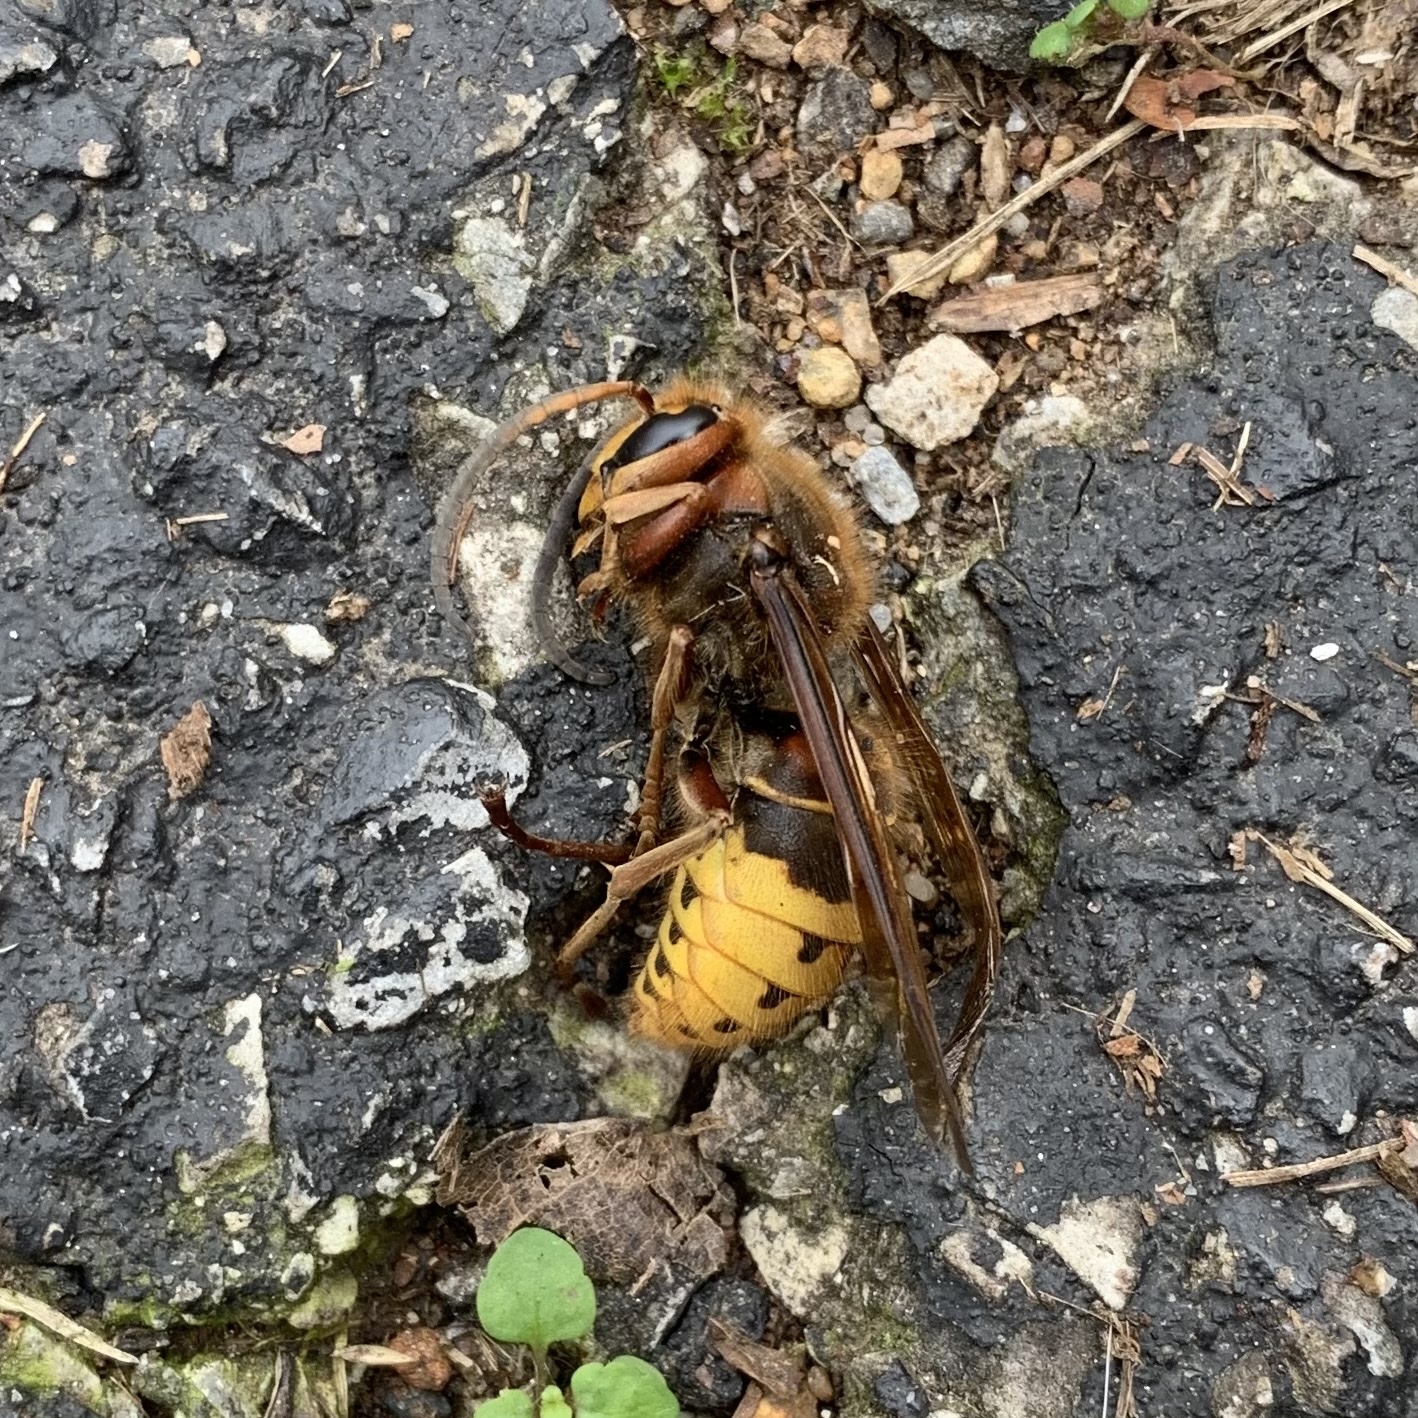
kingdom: Animalia
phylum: Arthropoda
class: Insecta
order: Hymenoptera
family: Vespidae
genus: Vespa
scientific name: Vespa crabro
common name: Hornet
